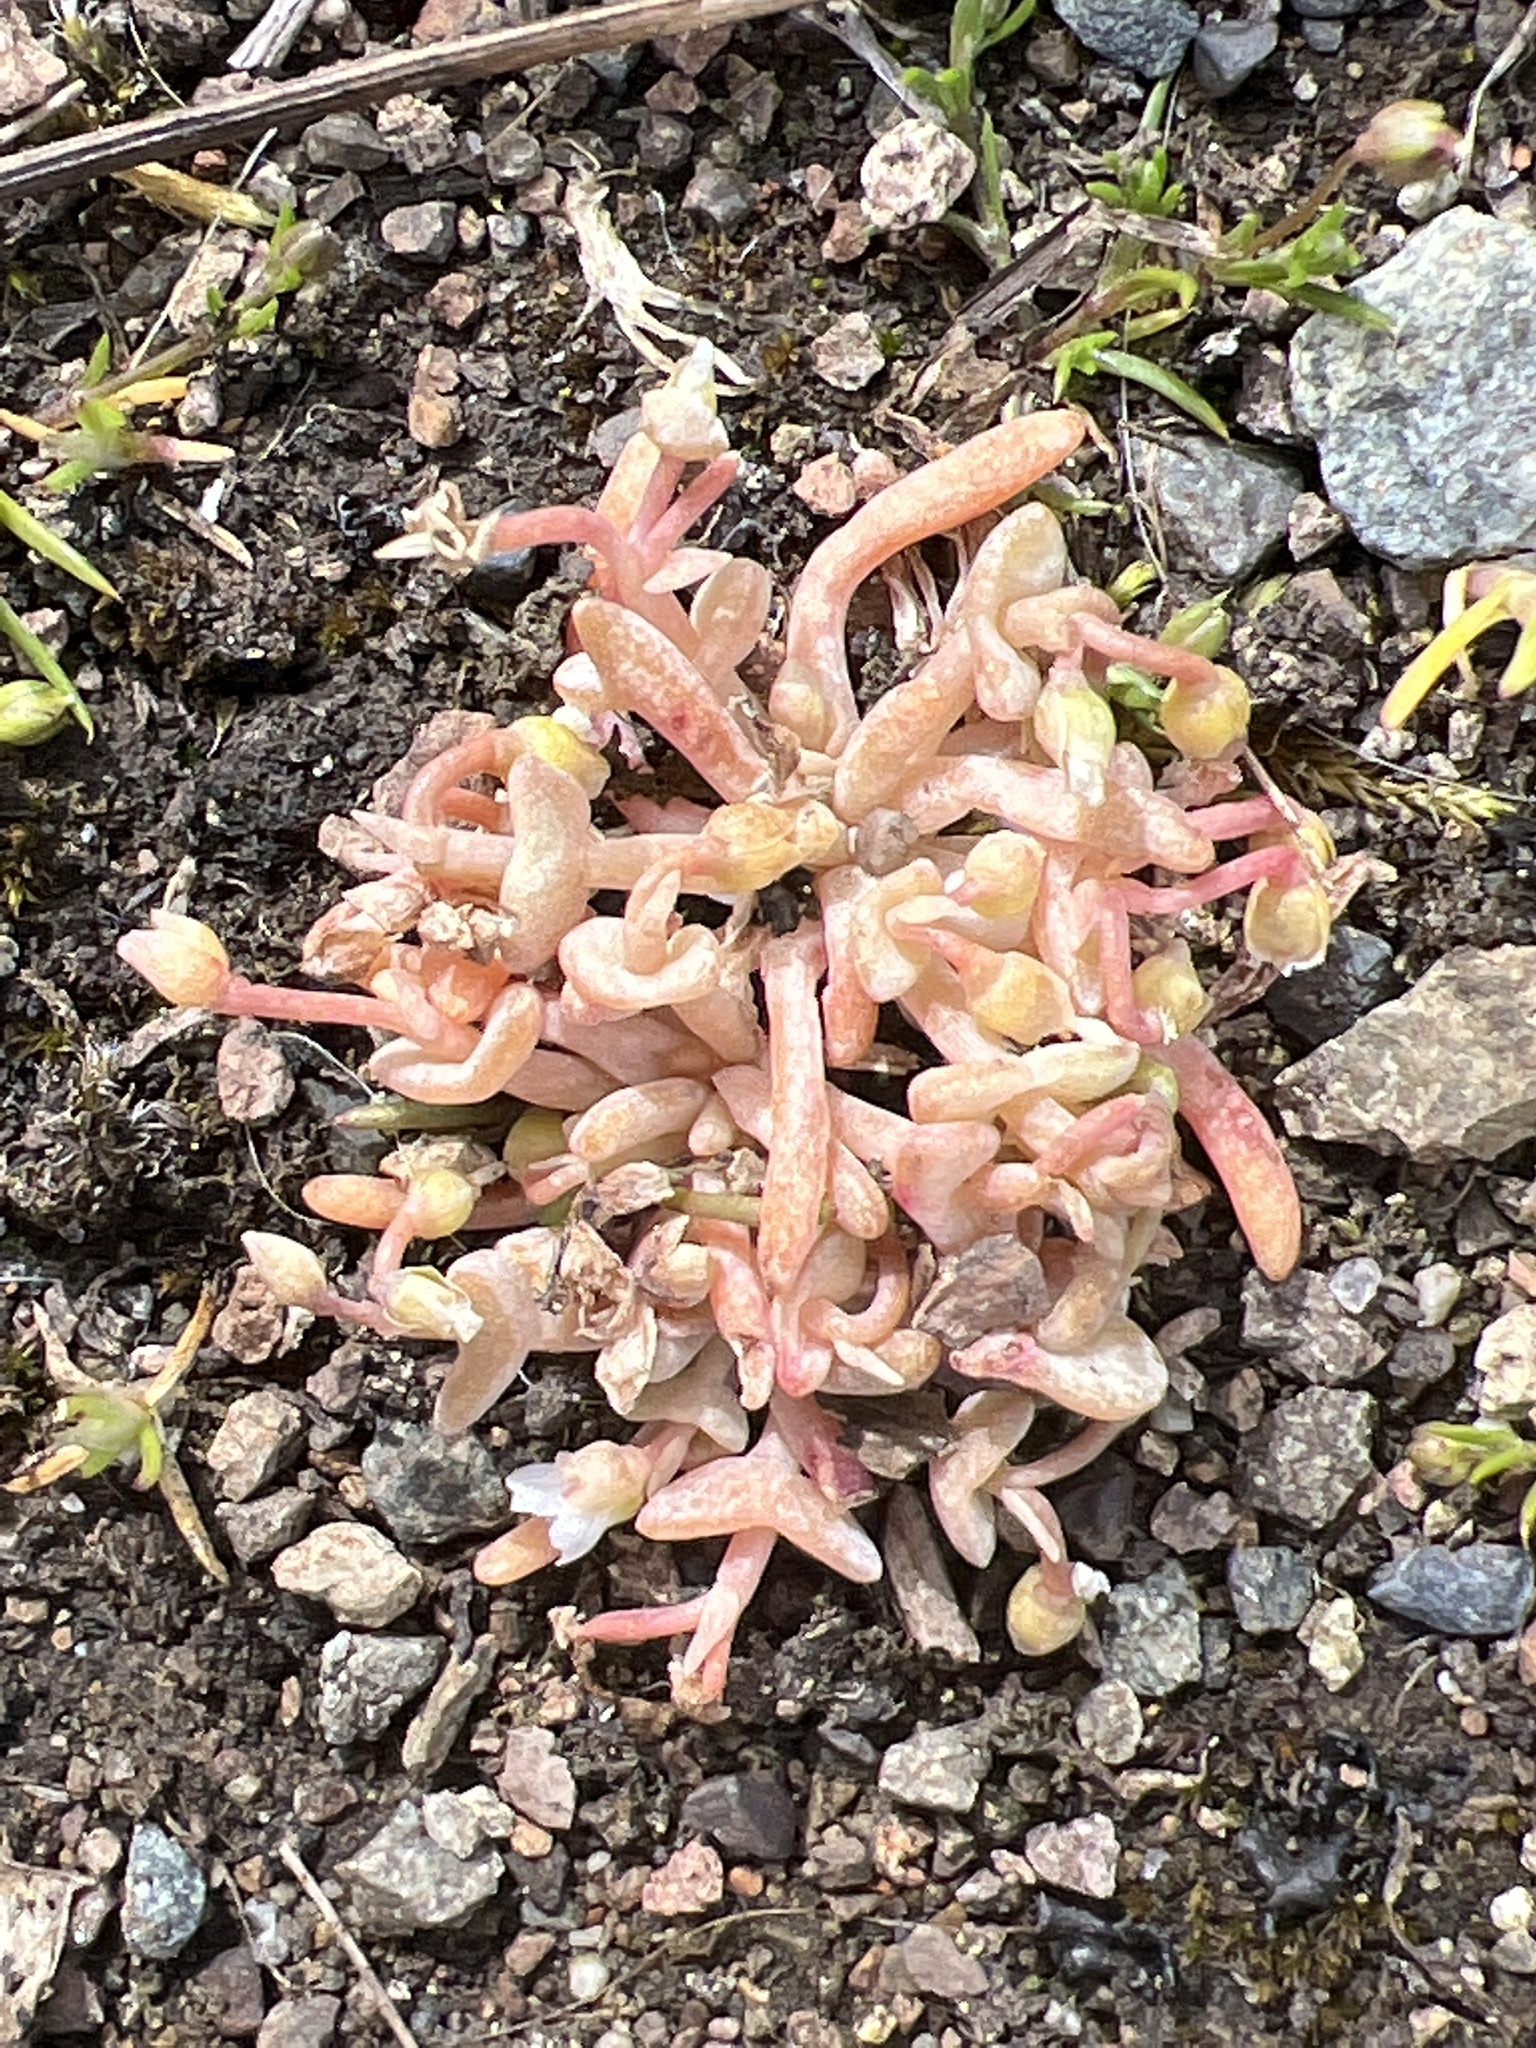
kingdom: Plantae
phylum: Tracheophyta
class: Magnoliopsida
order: Caryophyllales
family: Montiaceae
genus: Claytonia
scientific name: Claytonia exigua
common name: Pale spring beauty
